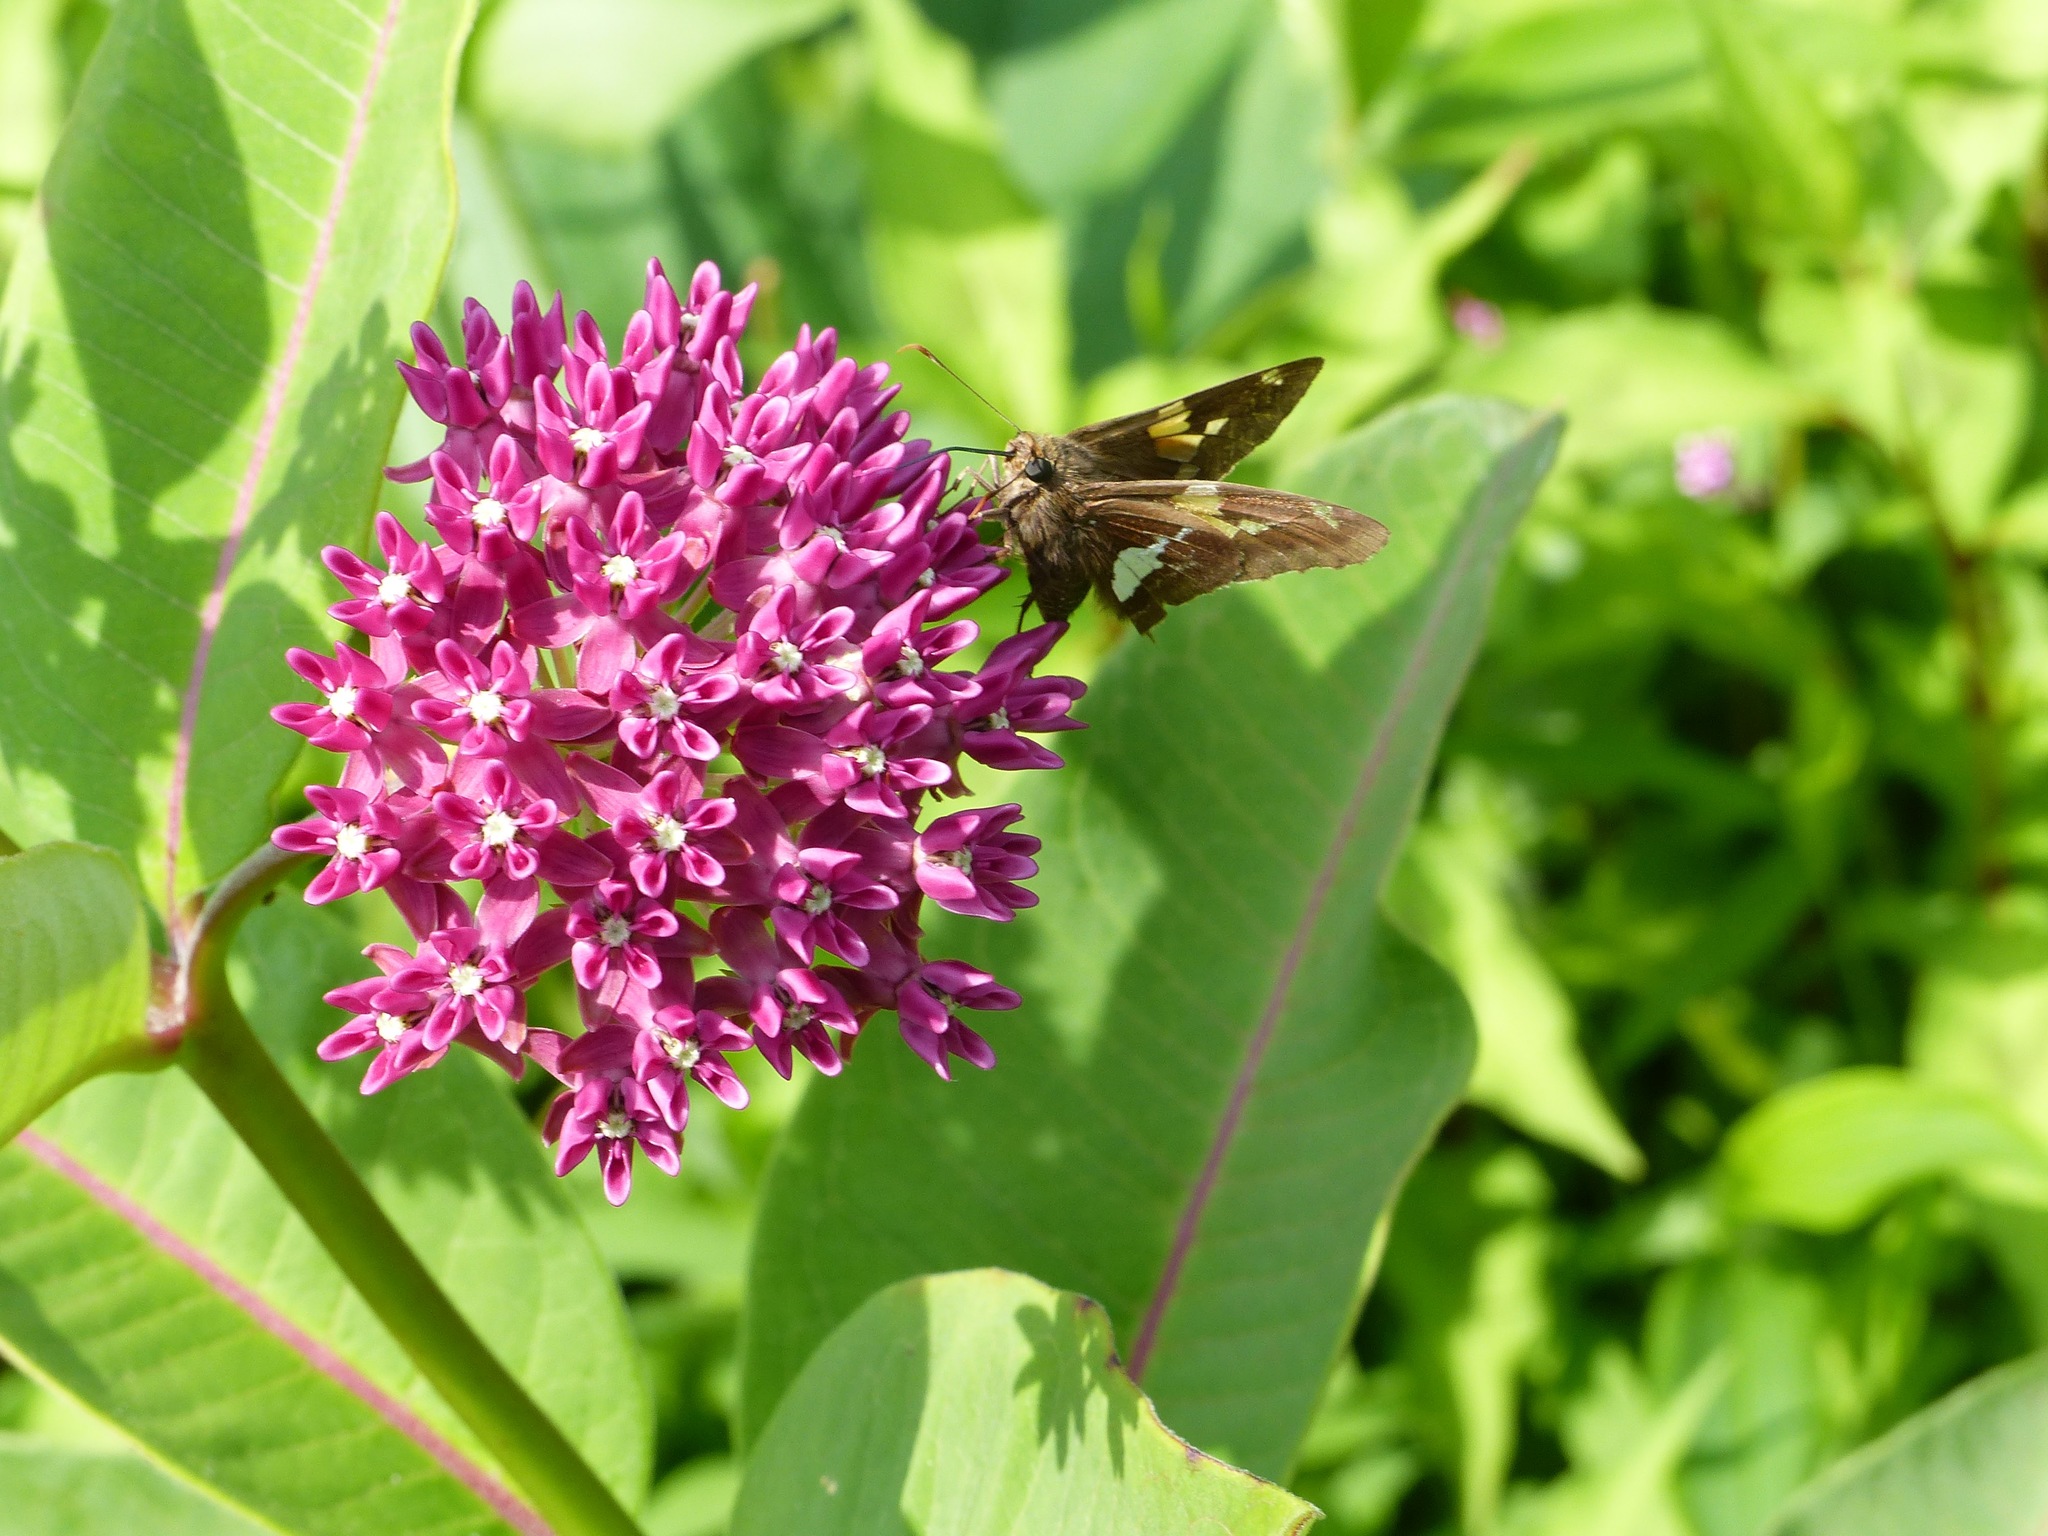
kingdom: Plantae
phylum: Tracheophyta
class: Magnoliopsida
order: Gentianales
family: Apocynaceae
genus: Asclepias
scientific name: Asclepias purpurascens
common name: Purple milkweed
